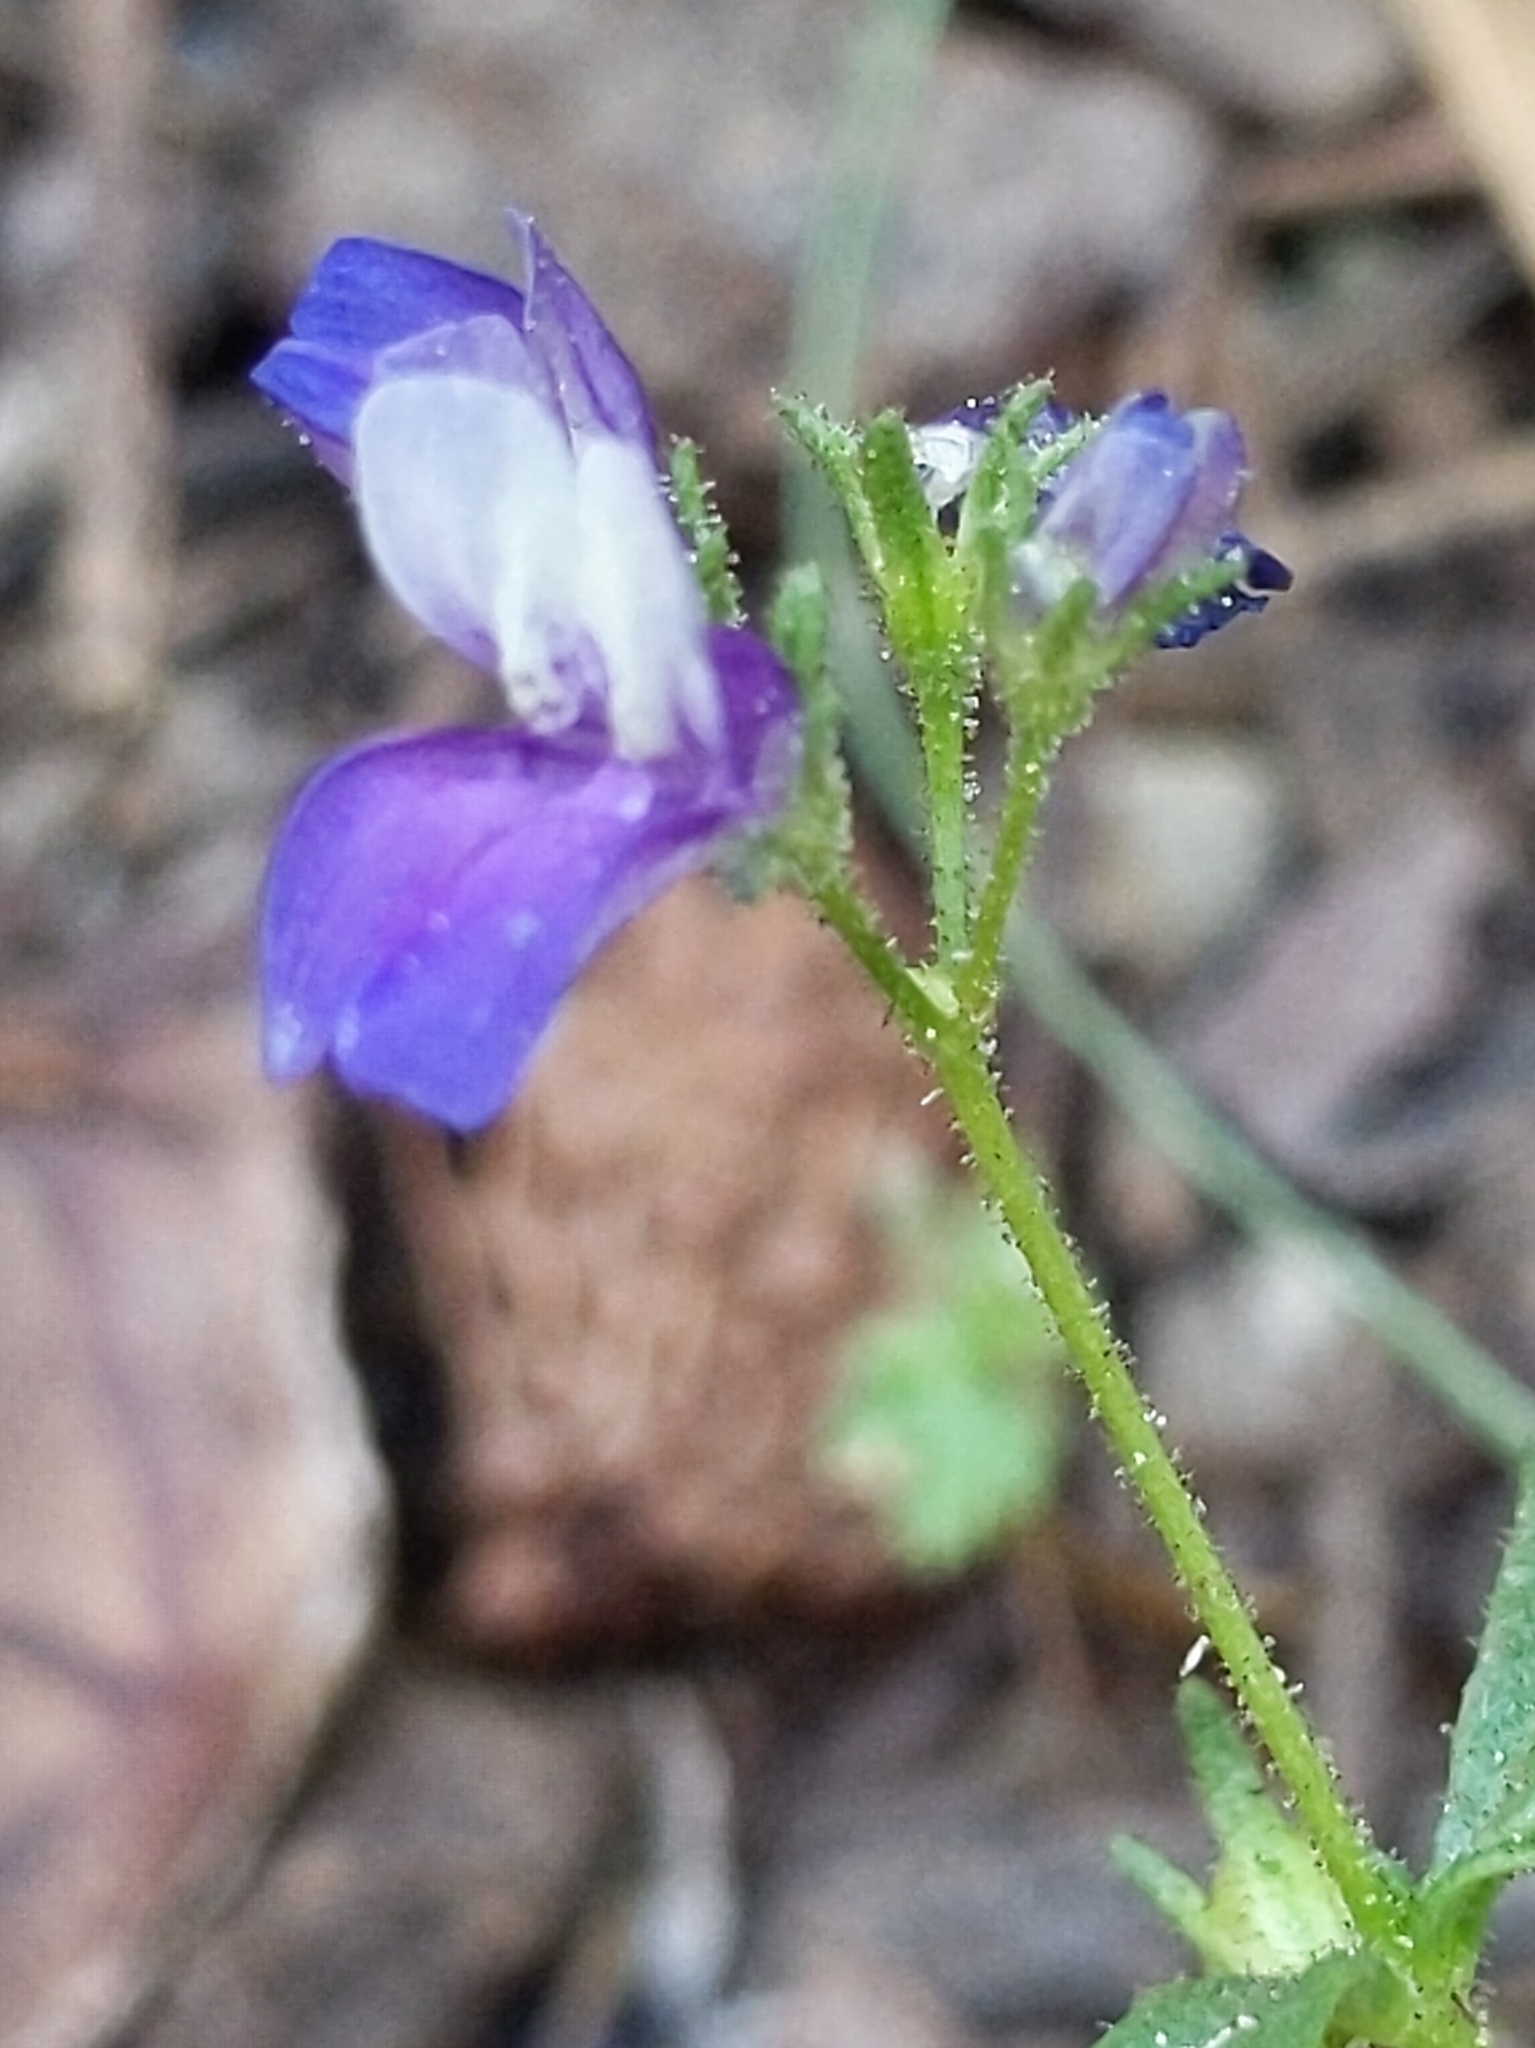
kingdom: Plantae
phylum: Tracheophyta
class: Magnoliopsida
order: Lamiales
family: Plantaginaceae
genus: Collinsia
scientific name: Collinsia torreyi
